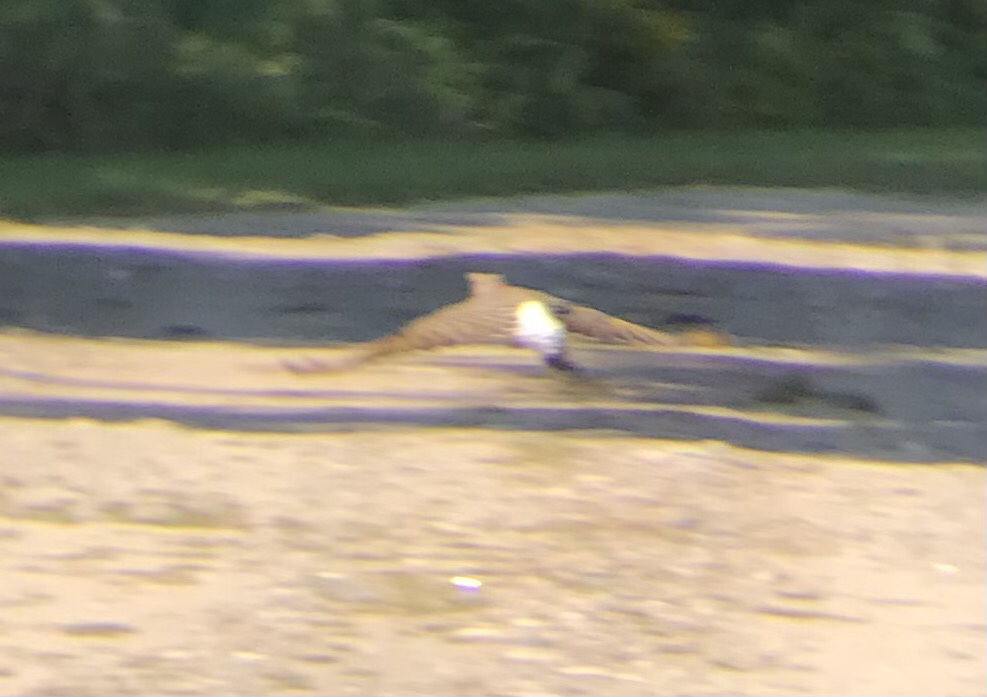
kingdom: Animalia
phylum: Chordata
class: Aves
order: Piciformes
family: Picidae
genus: Colaptes
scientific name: Colaptes auratus
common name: Northern flicker
